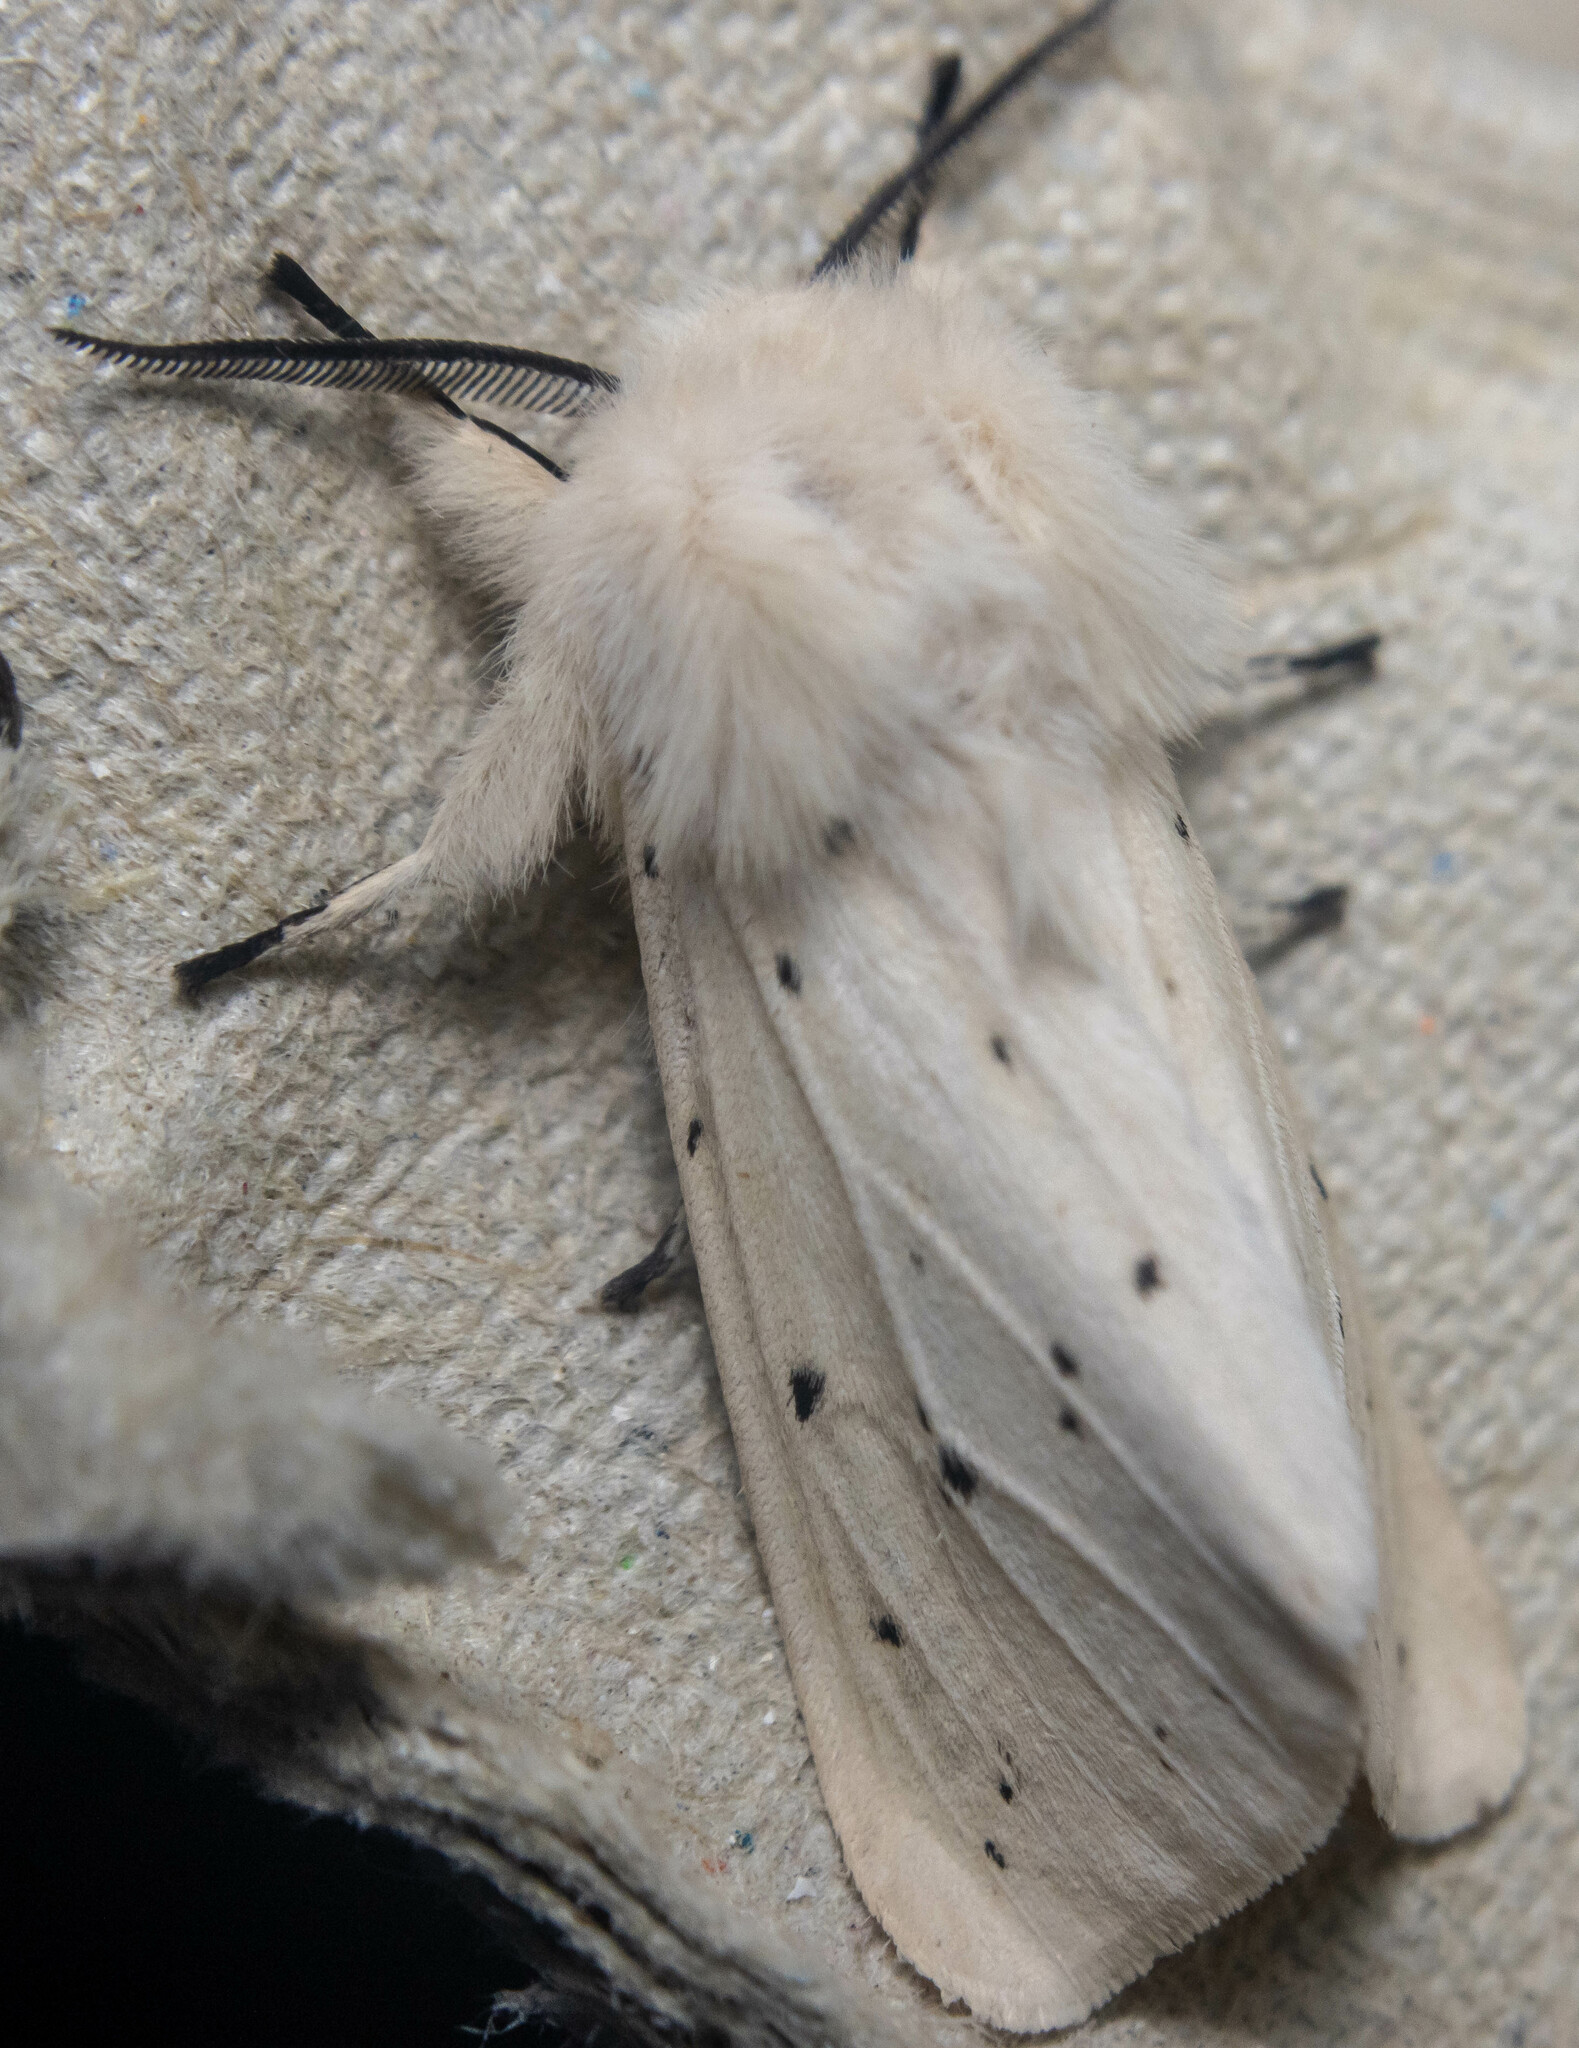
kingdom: Animalia
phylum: Arthropoda
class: Insecta
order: Lepidoptera
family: Erebidae
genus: Spilosoma
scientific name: Spilosoma lubricipeda
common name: White ermine
